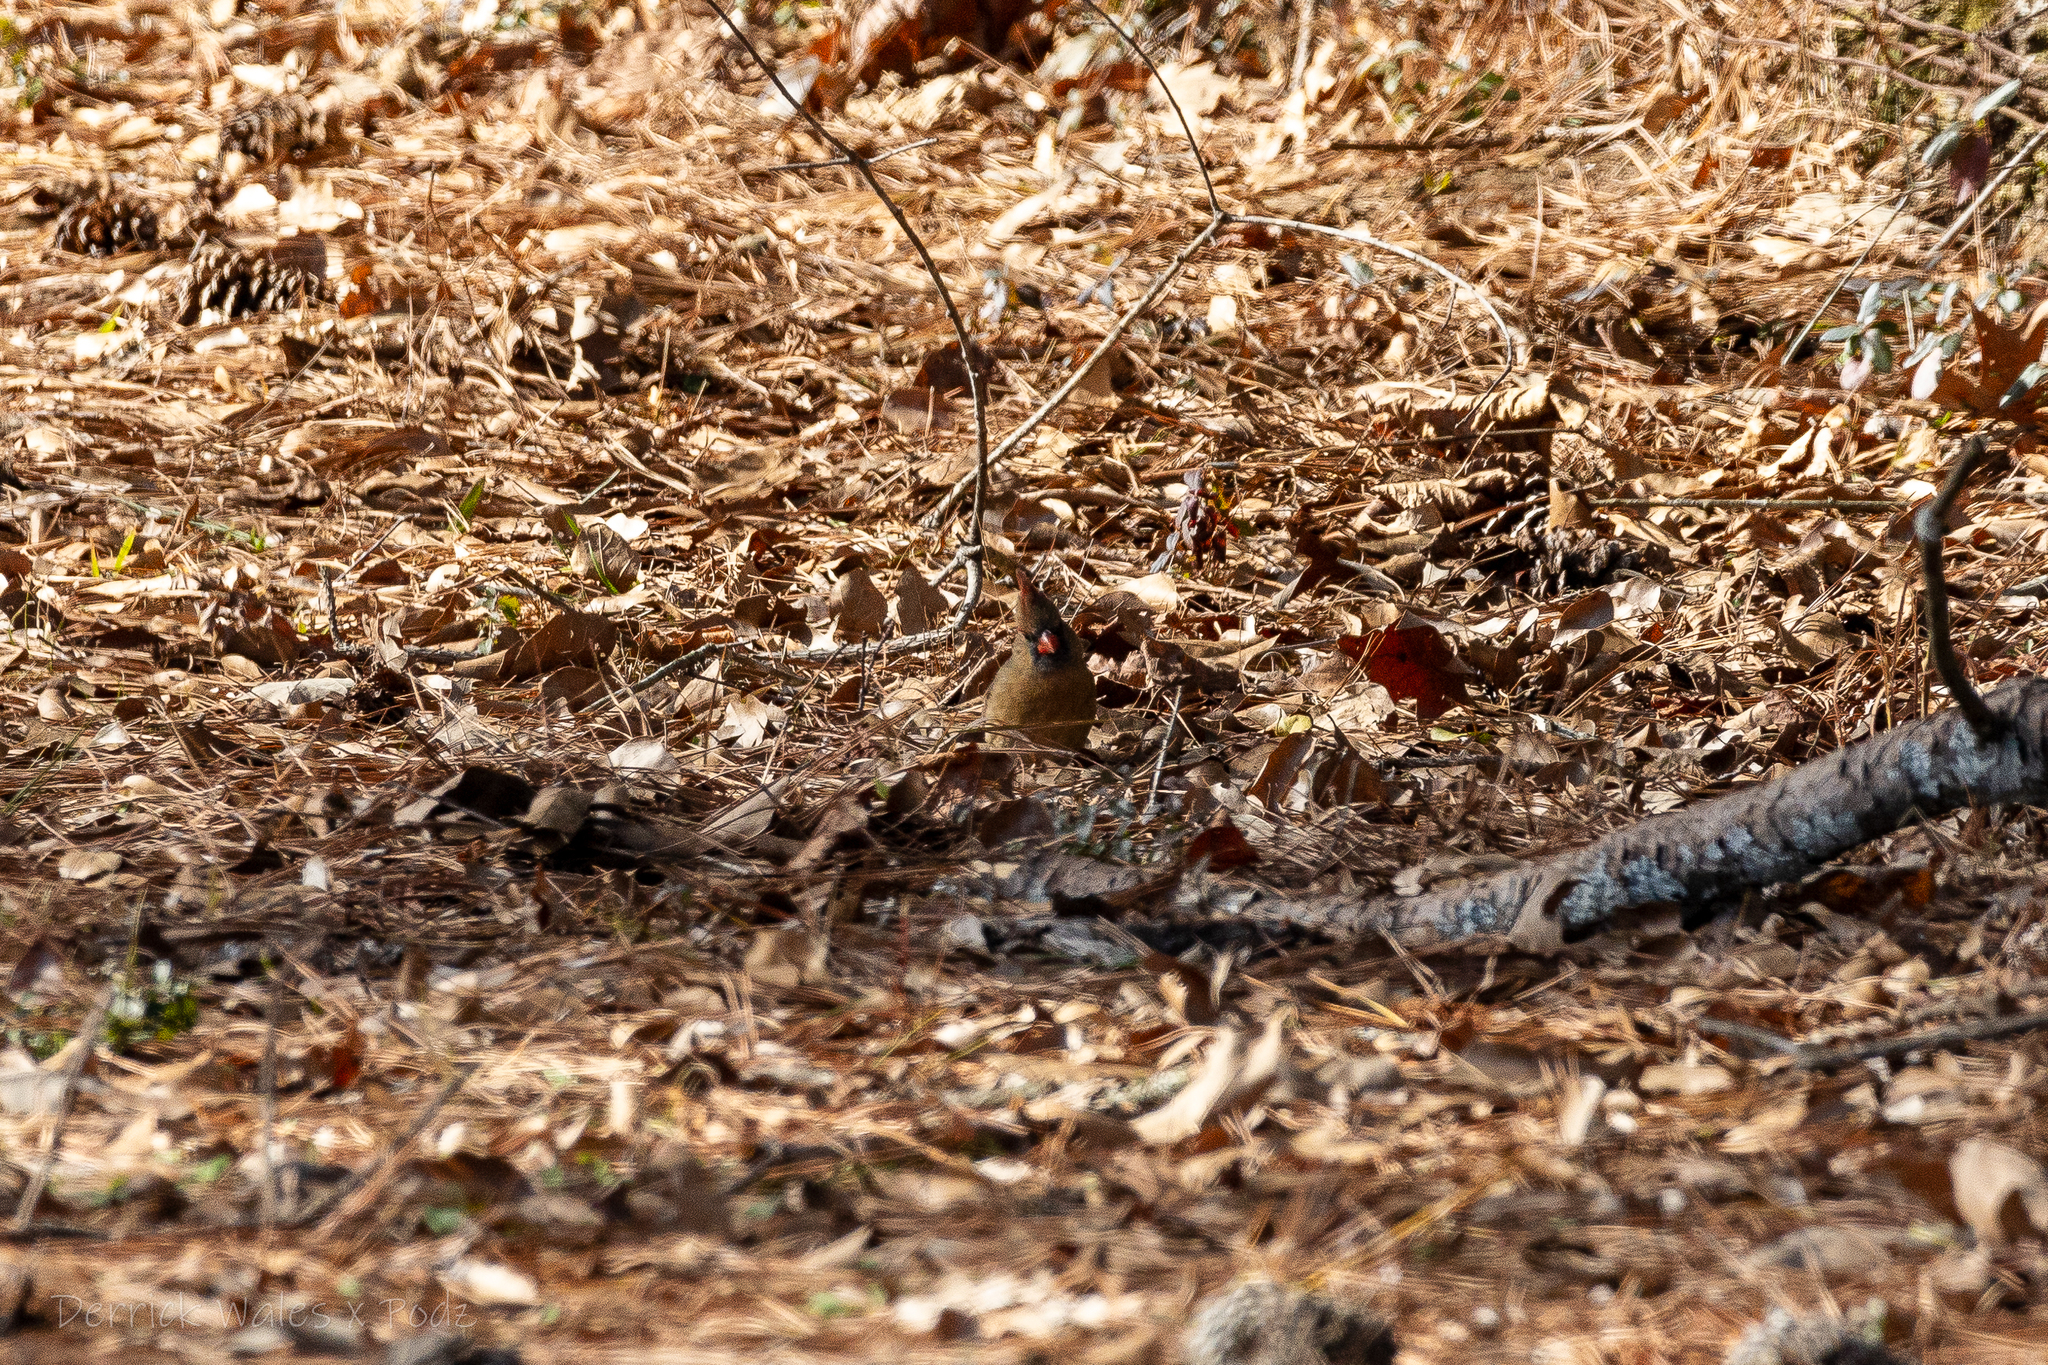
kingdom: Animalia
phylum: Chordata
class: Aves
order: Passeriformes
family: Cardinalidae
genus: Cardinalis
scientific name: Cardinalis cardinalis
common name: Northern cardinal
